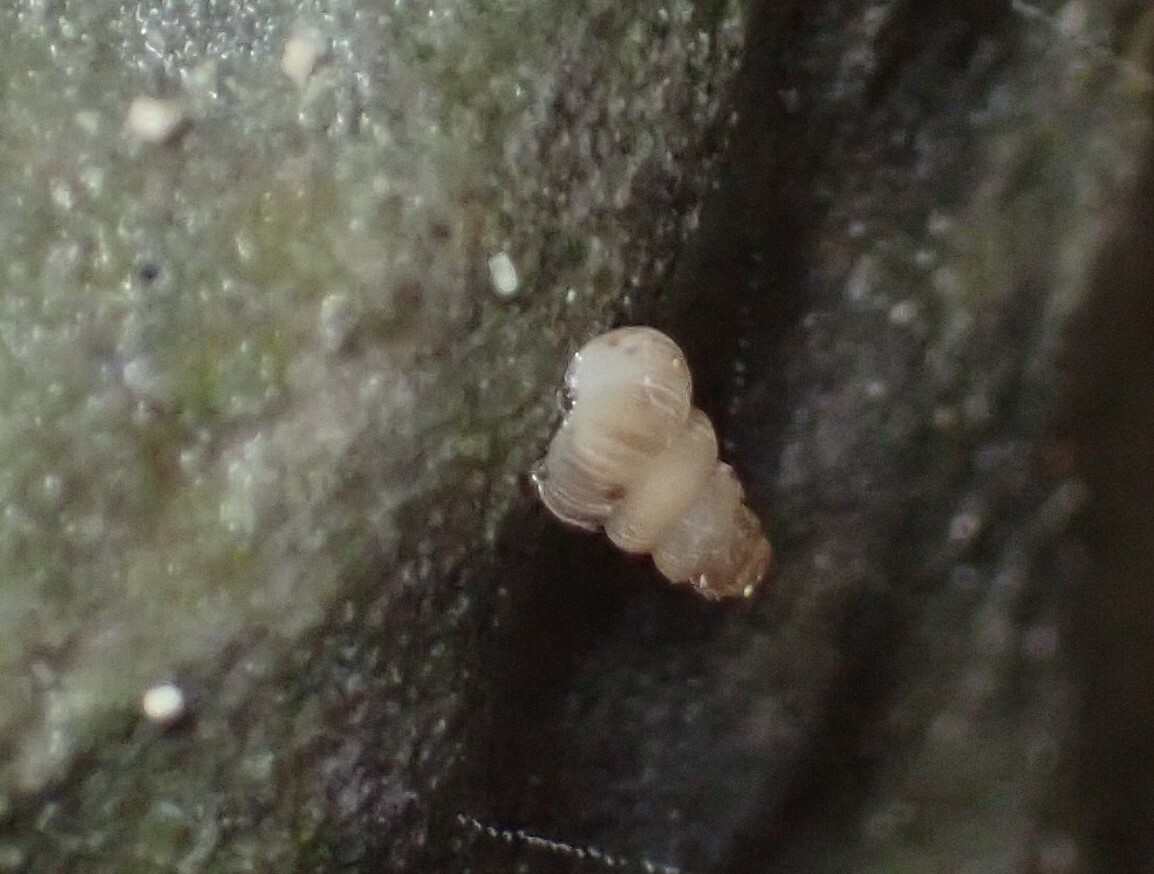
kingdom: Animalia
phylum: Mollusca
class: Gastropoda
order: Architaenioglossa
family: Cochlostomatidae
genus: Cochlostoma
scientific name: Cochlostoma septemspirale
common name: Seven-whorl snail
